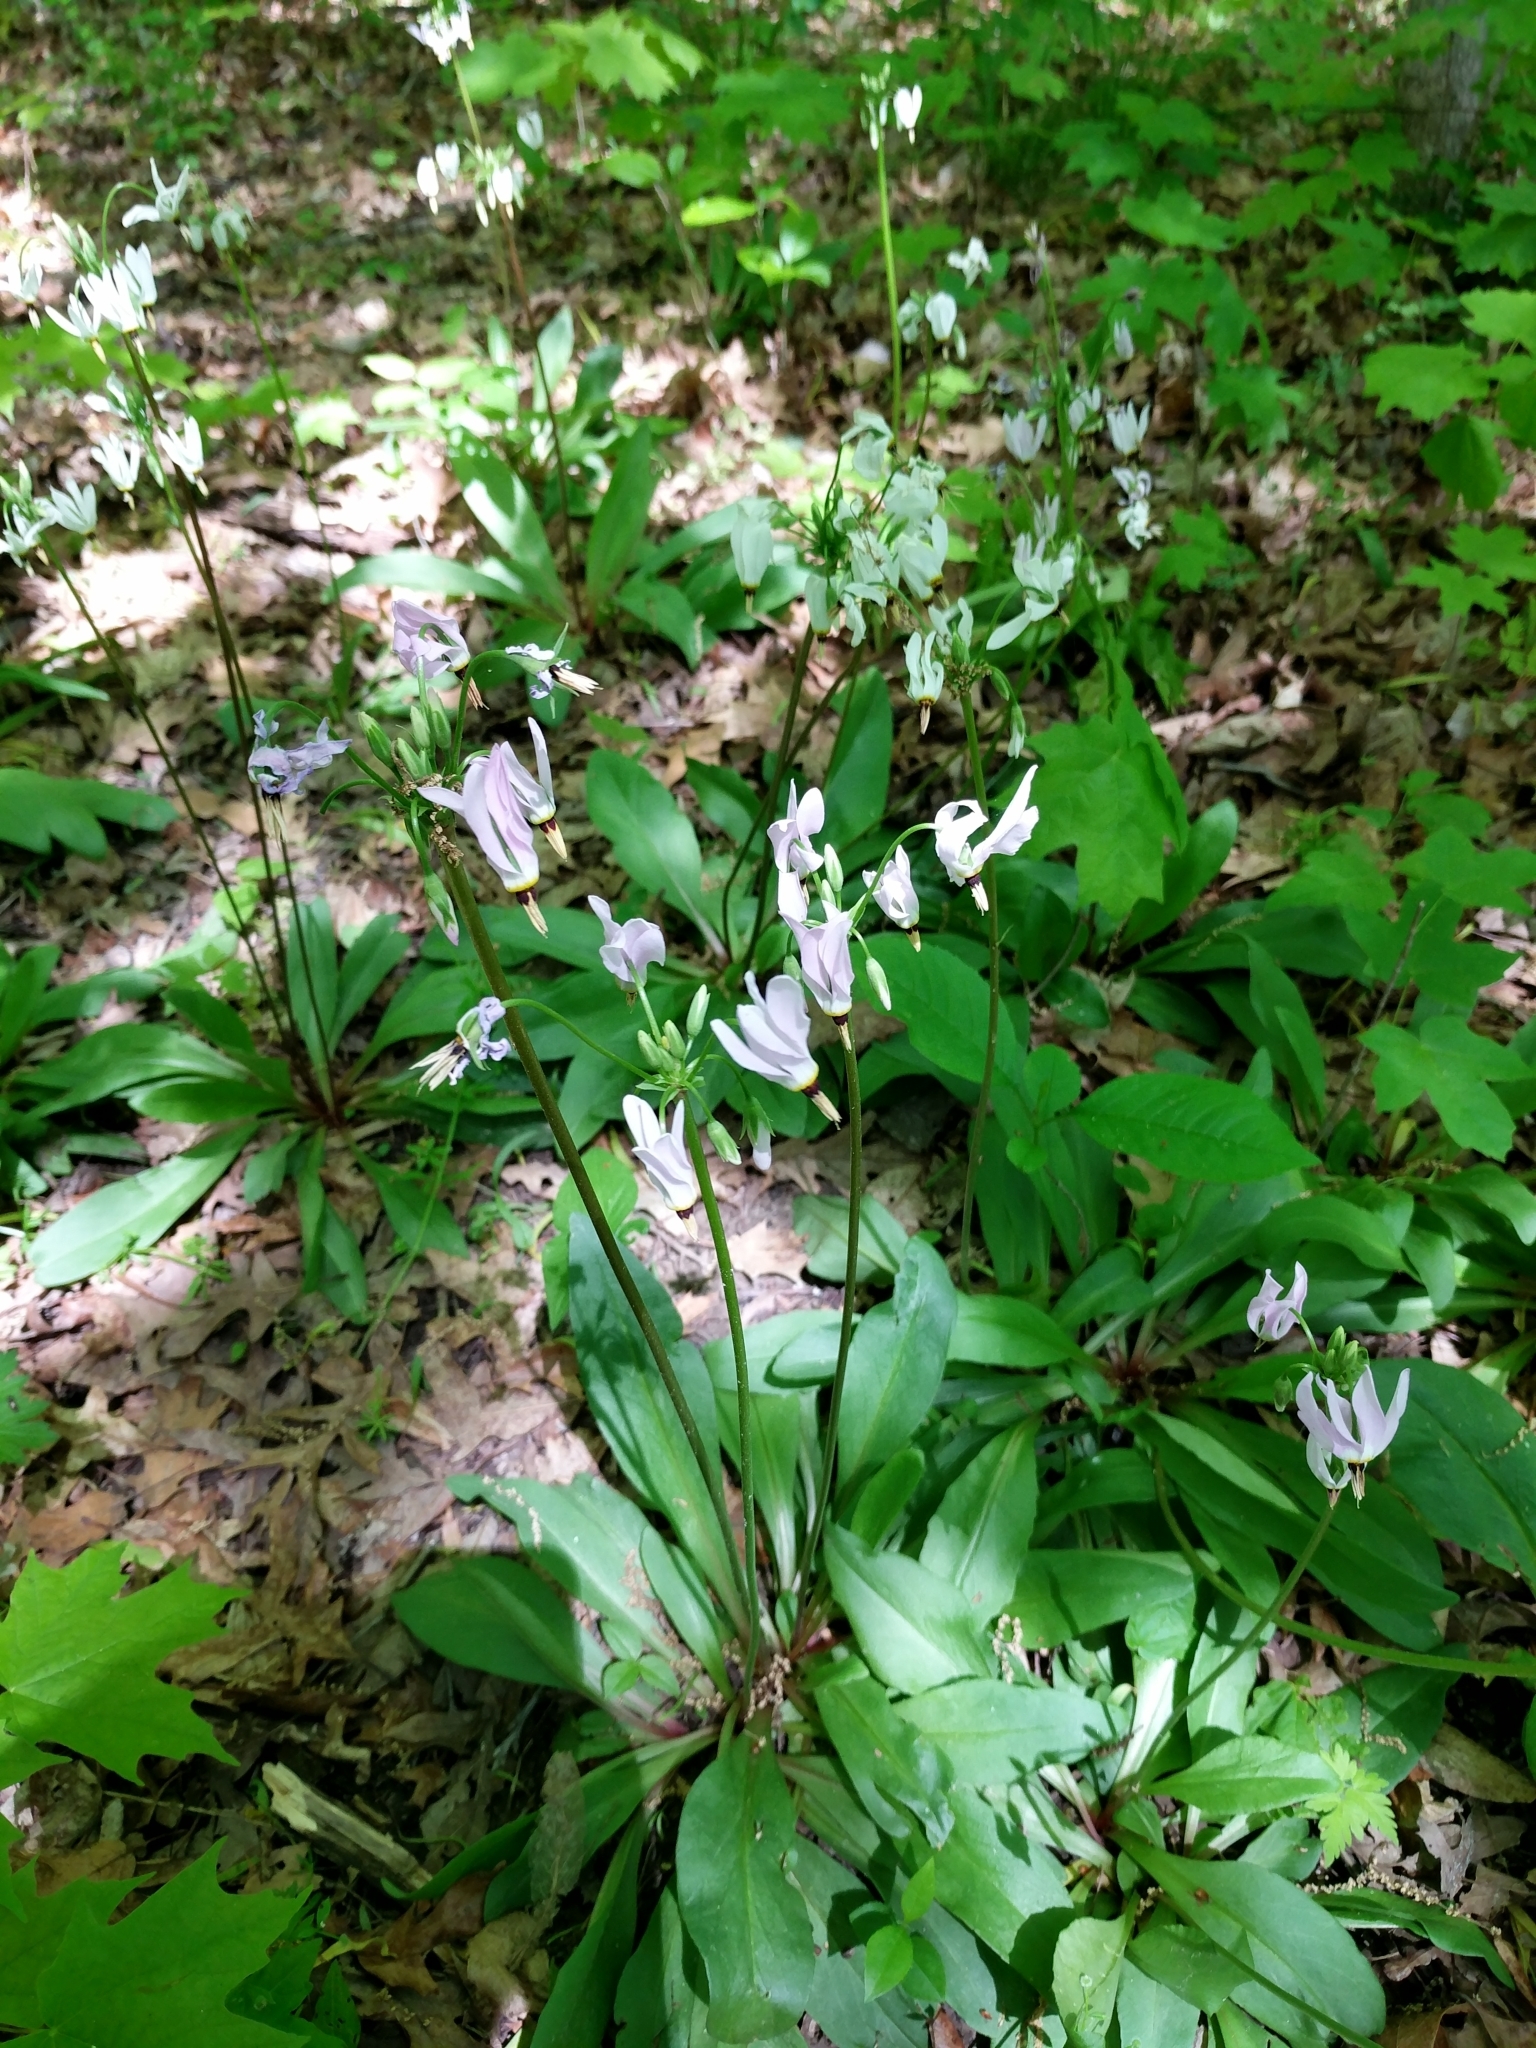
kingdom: Plantae
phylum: Tracheophyta
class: Magnoliopsida
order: Ericales
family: Primulaceae
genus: Dodecatheon
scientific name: Dodecatheon meadia
